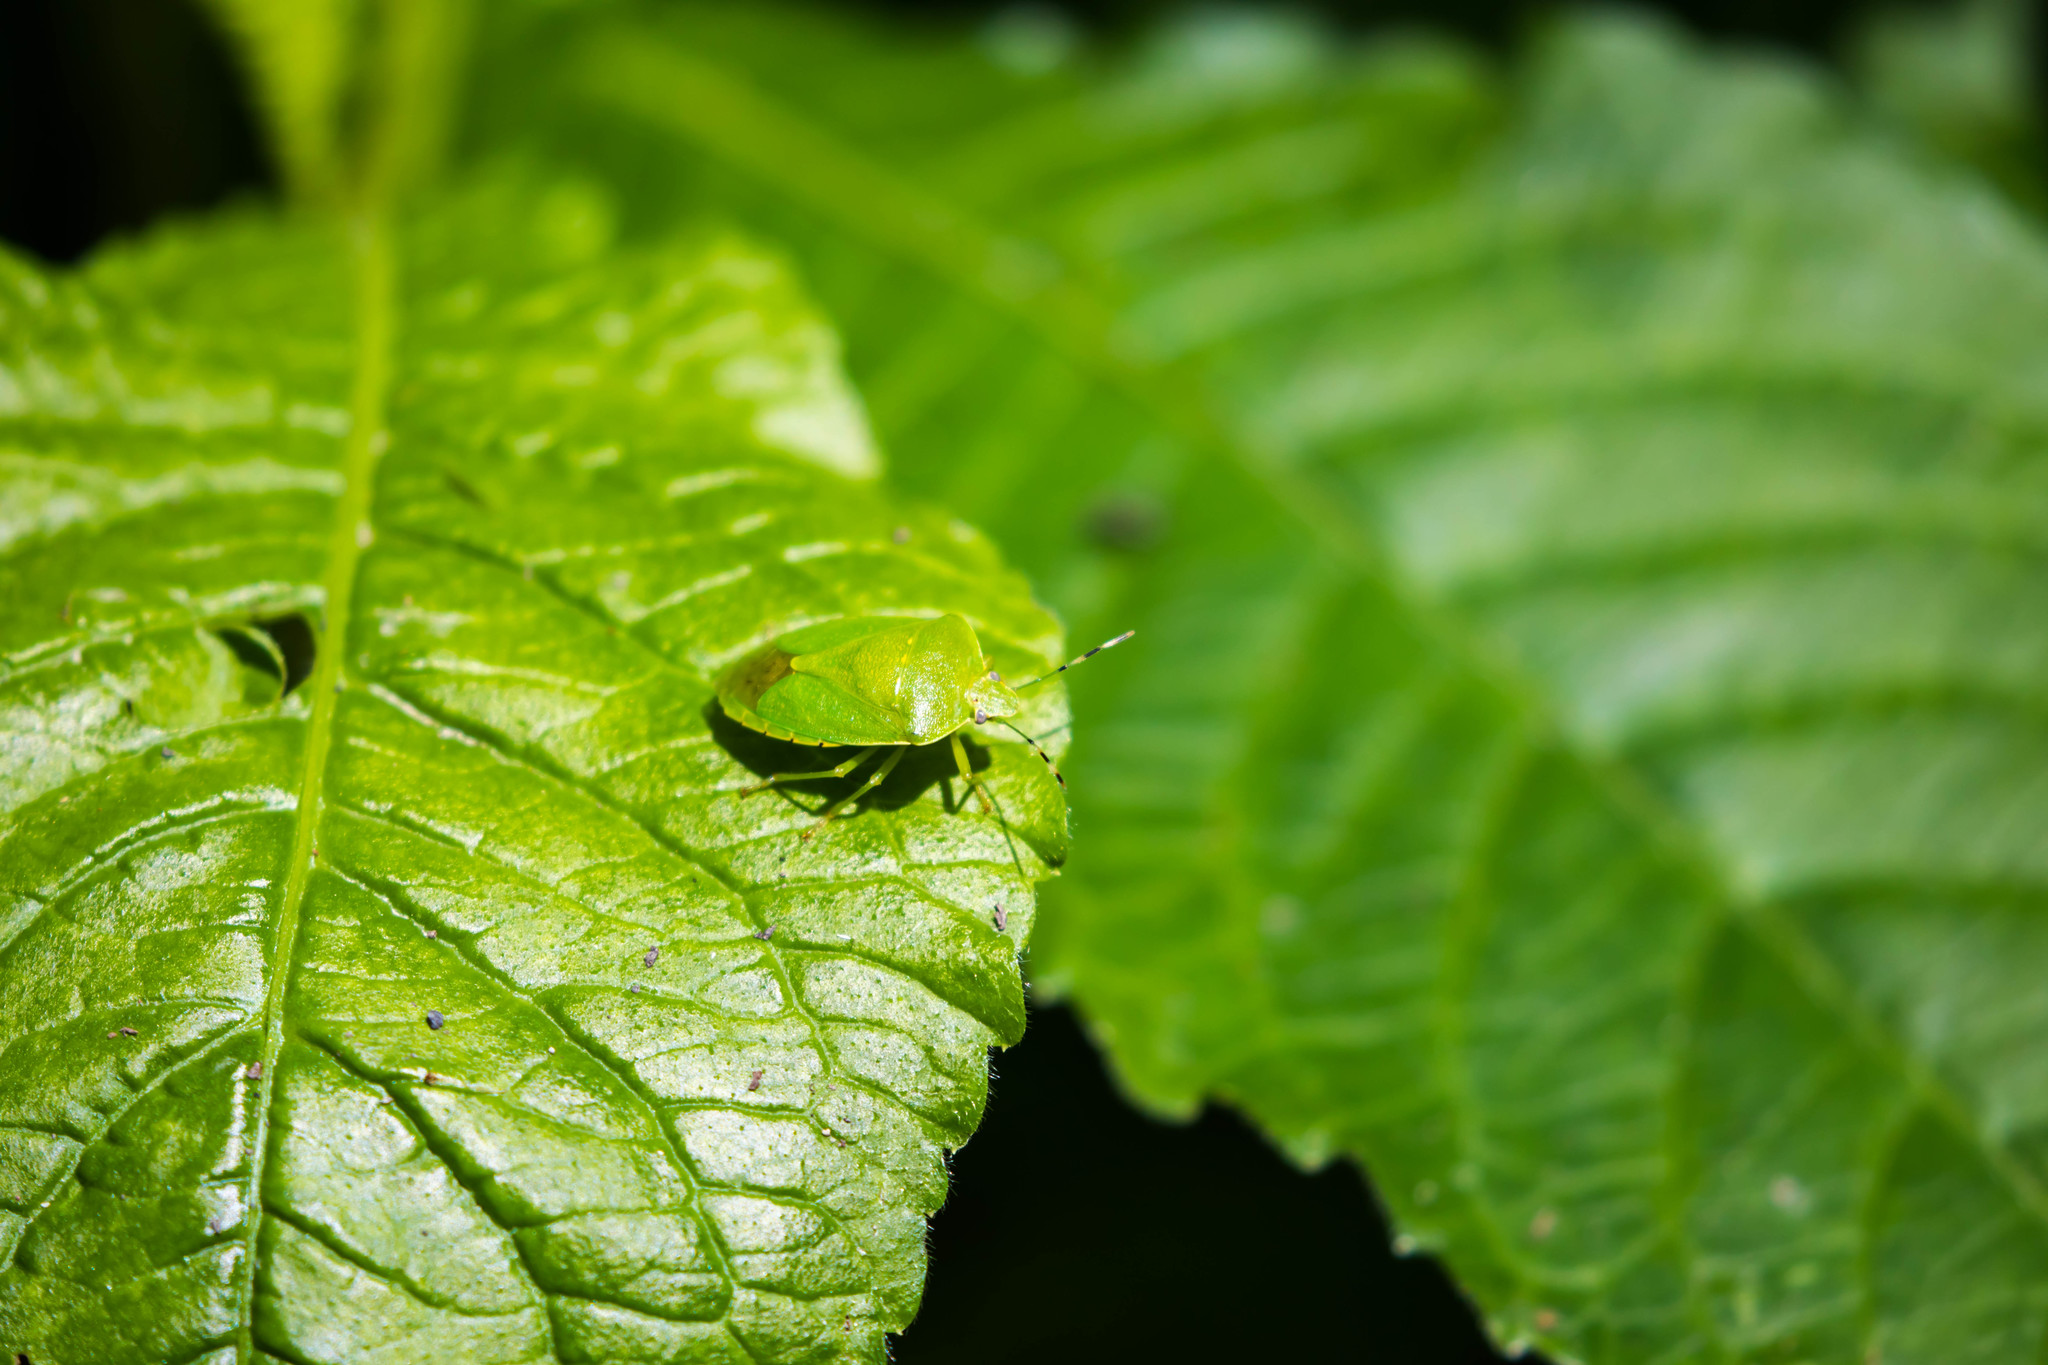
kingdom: Animalia
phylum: Arthropoda
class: Insecta
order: Hemiptera
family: Pentatomidae
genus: Chinavia
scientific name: Chinavia hilaris
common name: Green stink bug
